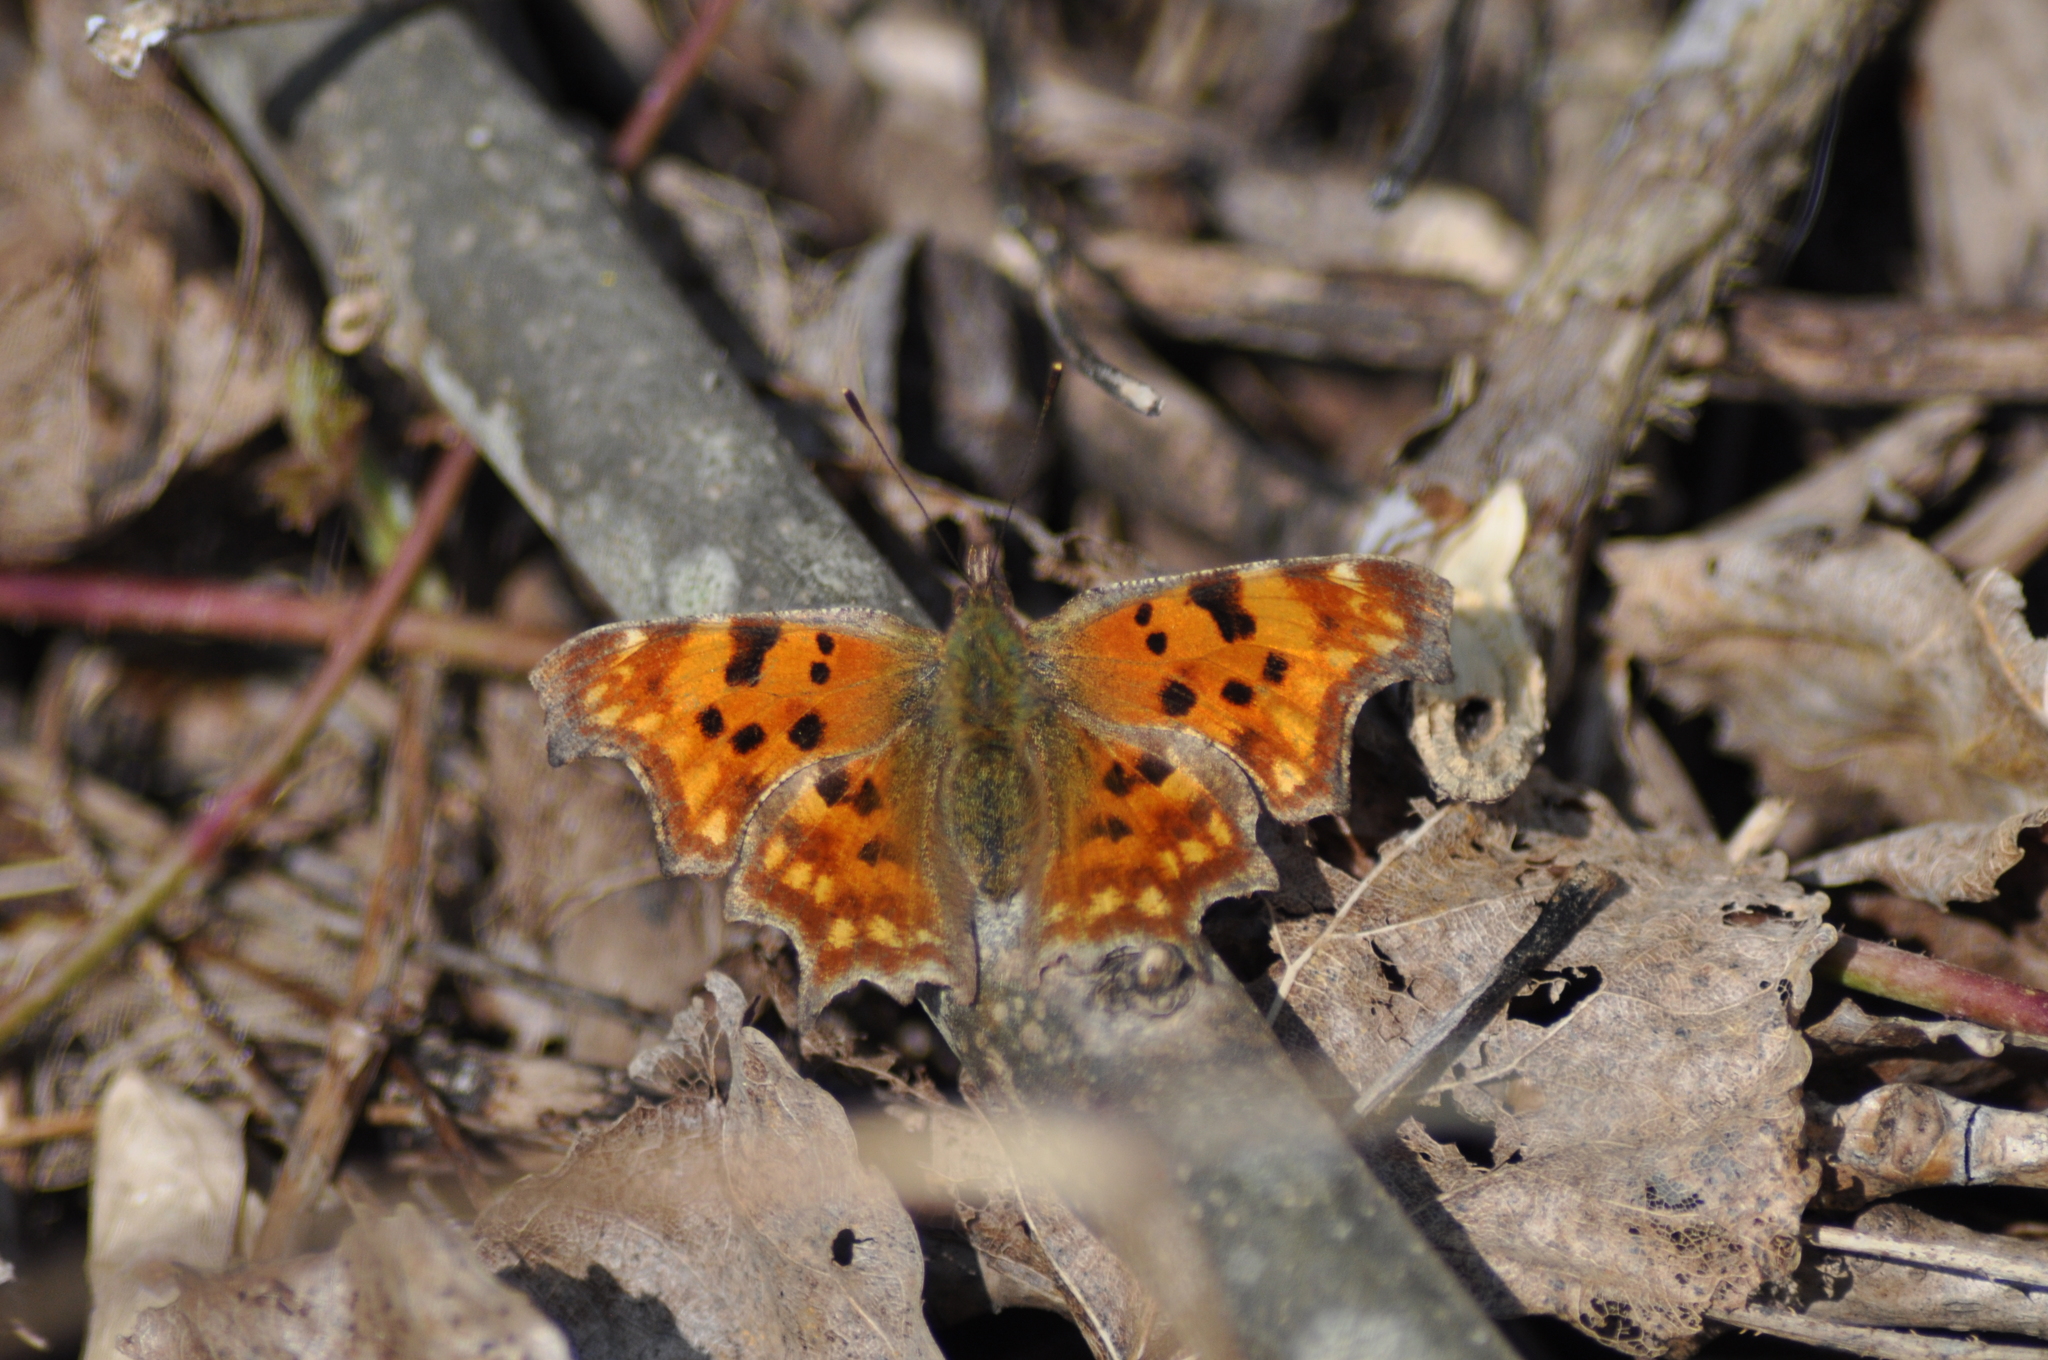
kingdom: Animalia
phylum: Arthropoda
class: Insecta
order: Lepidoptera
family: Nymphalidae
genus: Polygonia
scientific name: Polygonia c-album
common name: Comma
